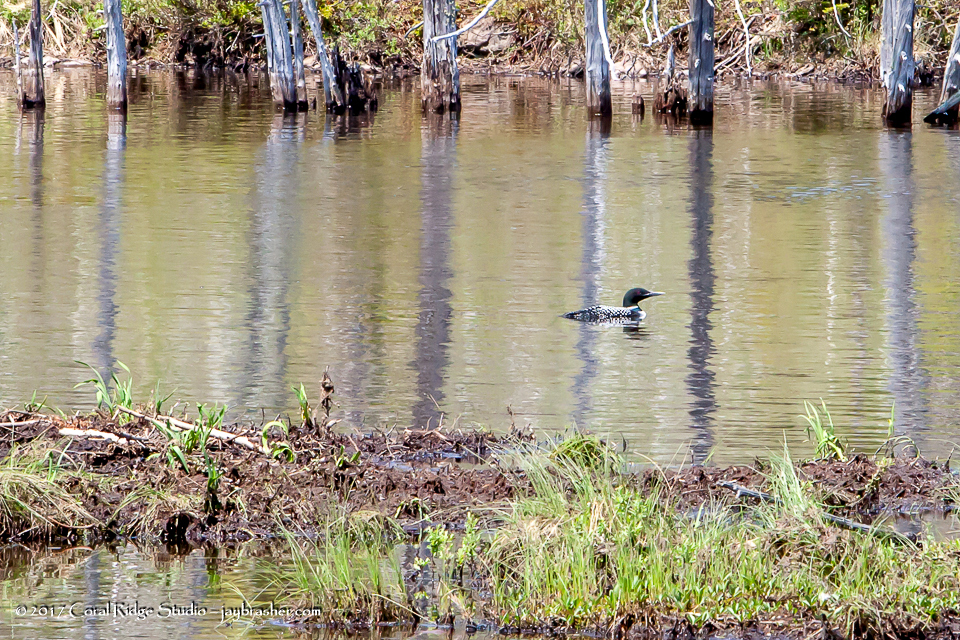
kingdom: Animalia
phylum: Chordata
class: Aves
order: Gaviiformes
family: Gaviidae
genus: Gavia
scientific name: Gavia immer
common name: Common loon
